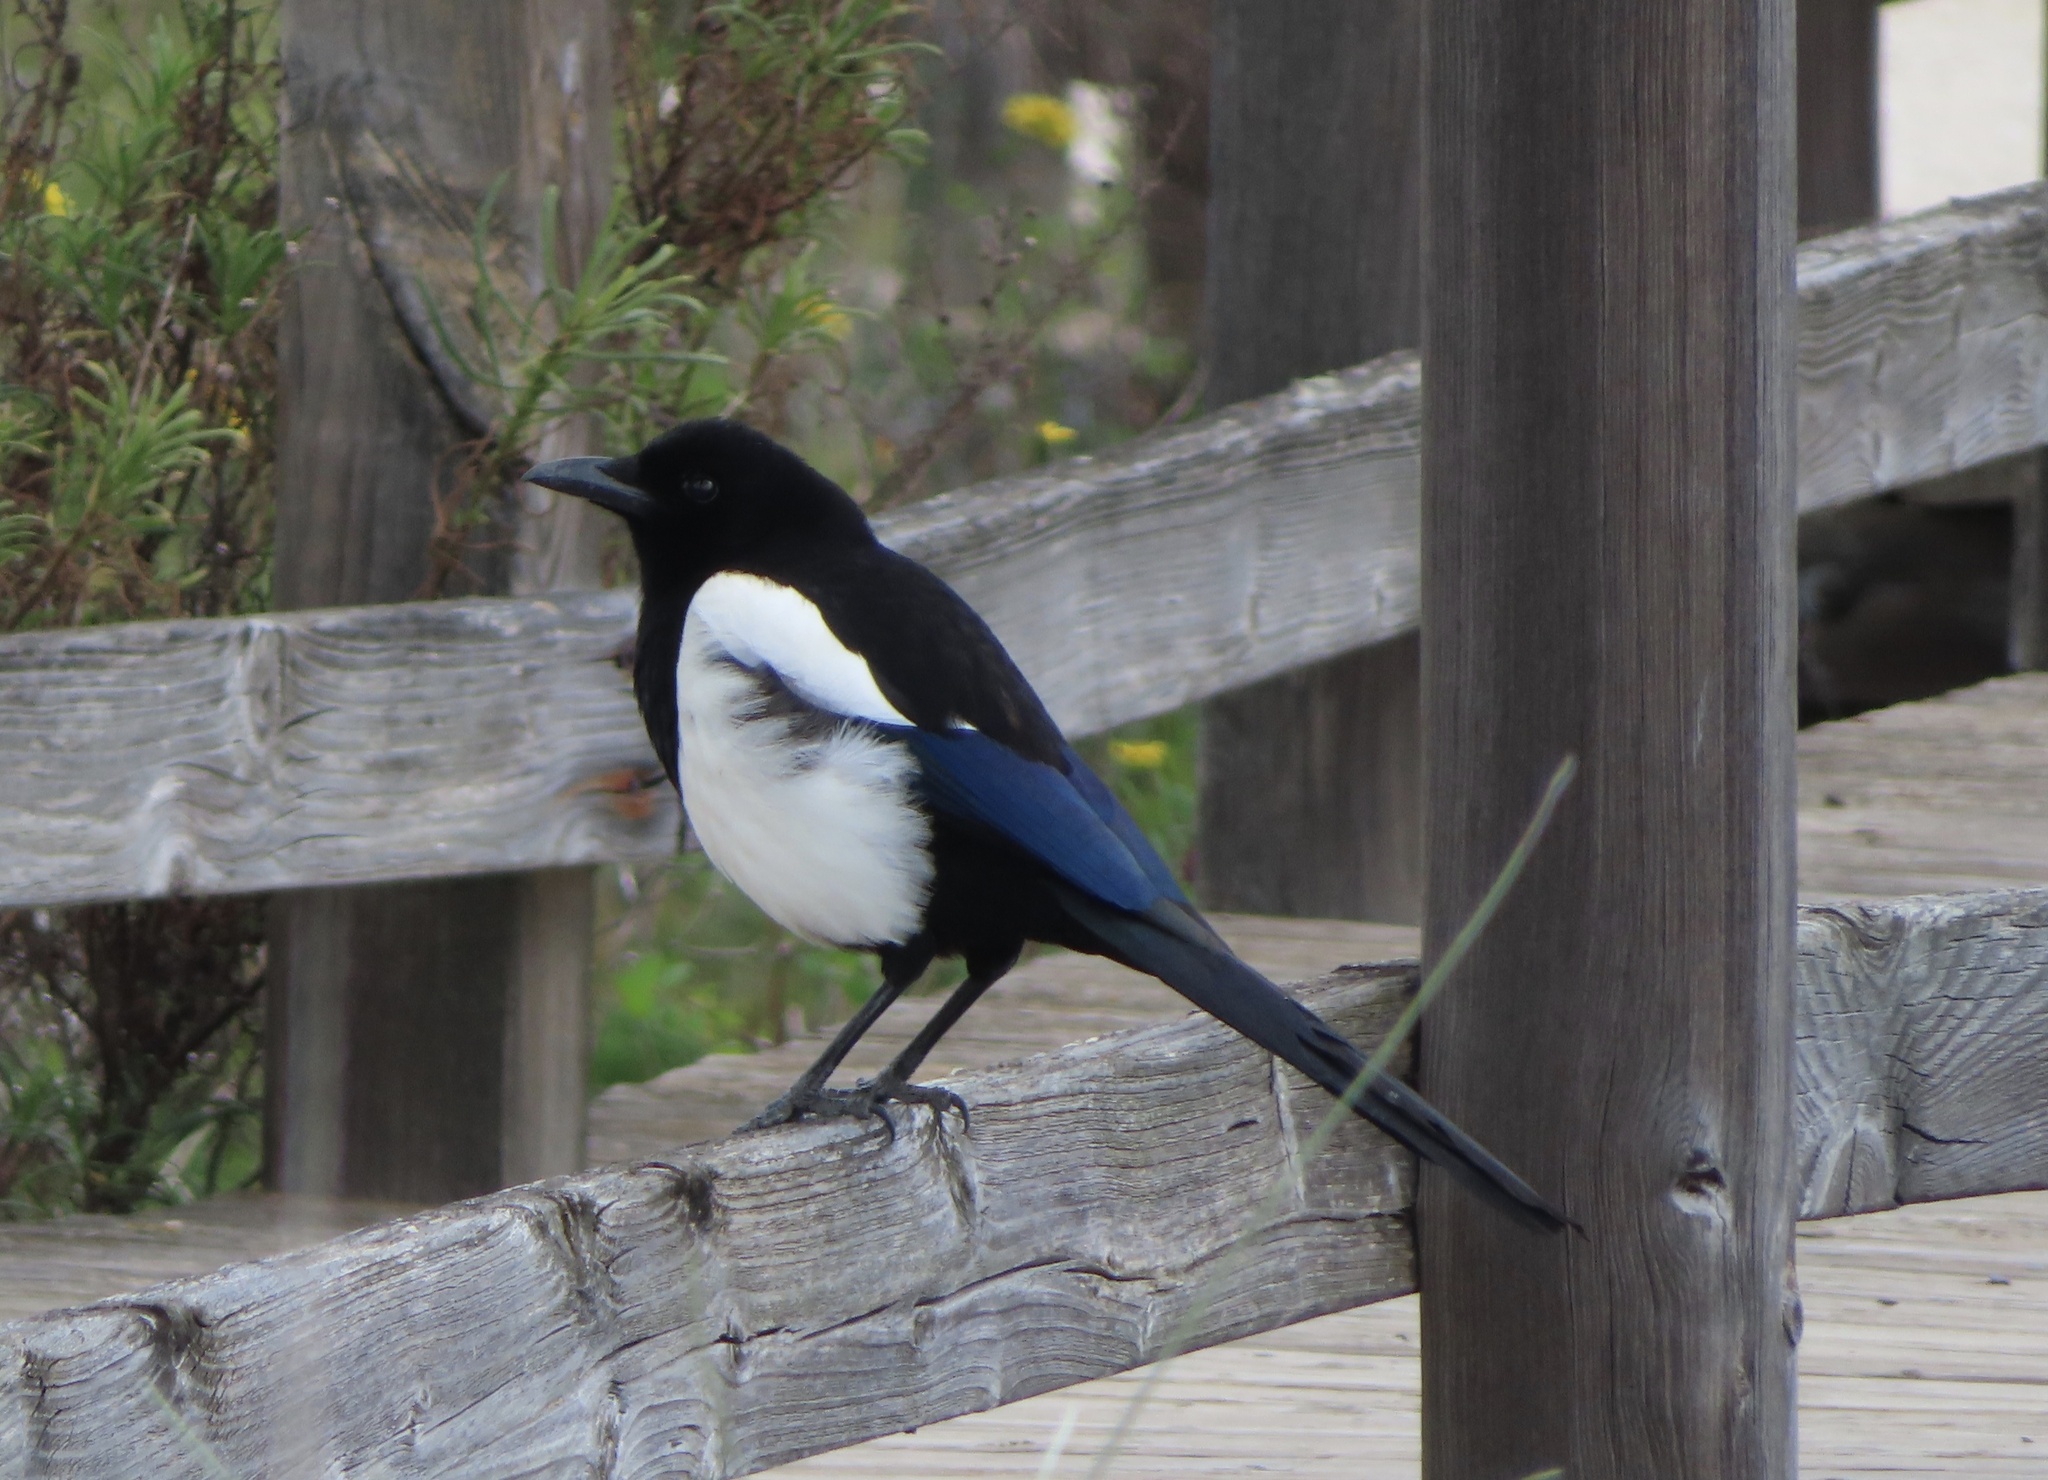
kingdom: Animalia
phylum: Chordata
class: Aves
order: Passeriformes
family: Corvidae
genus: Pica
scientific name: Pica pica
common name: Eurasian magpie
